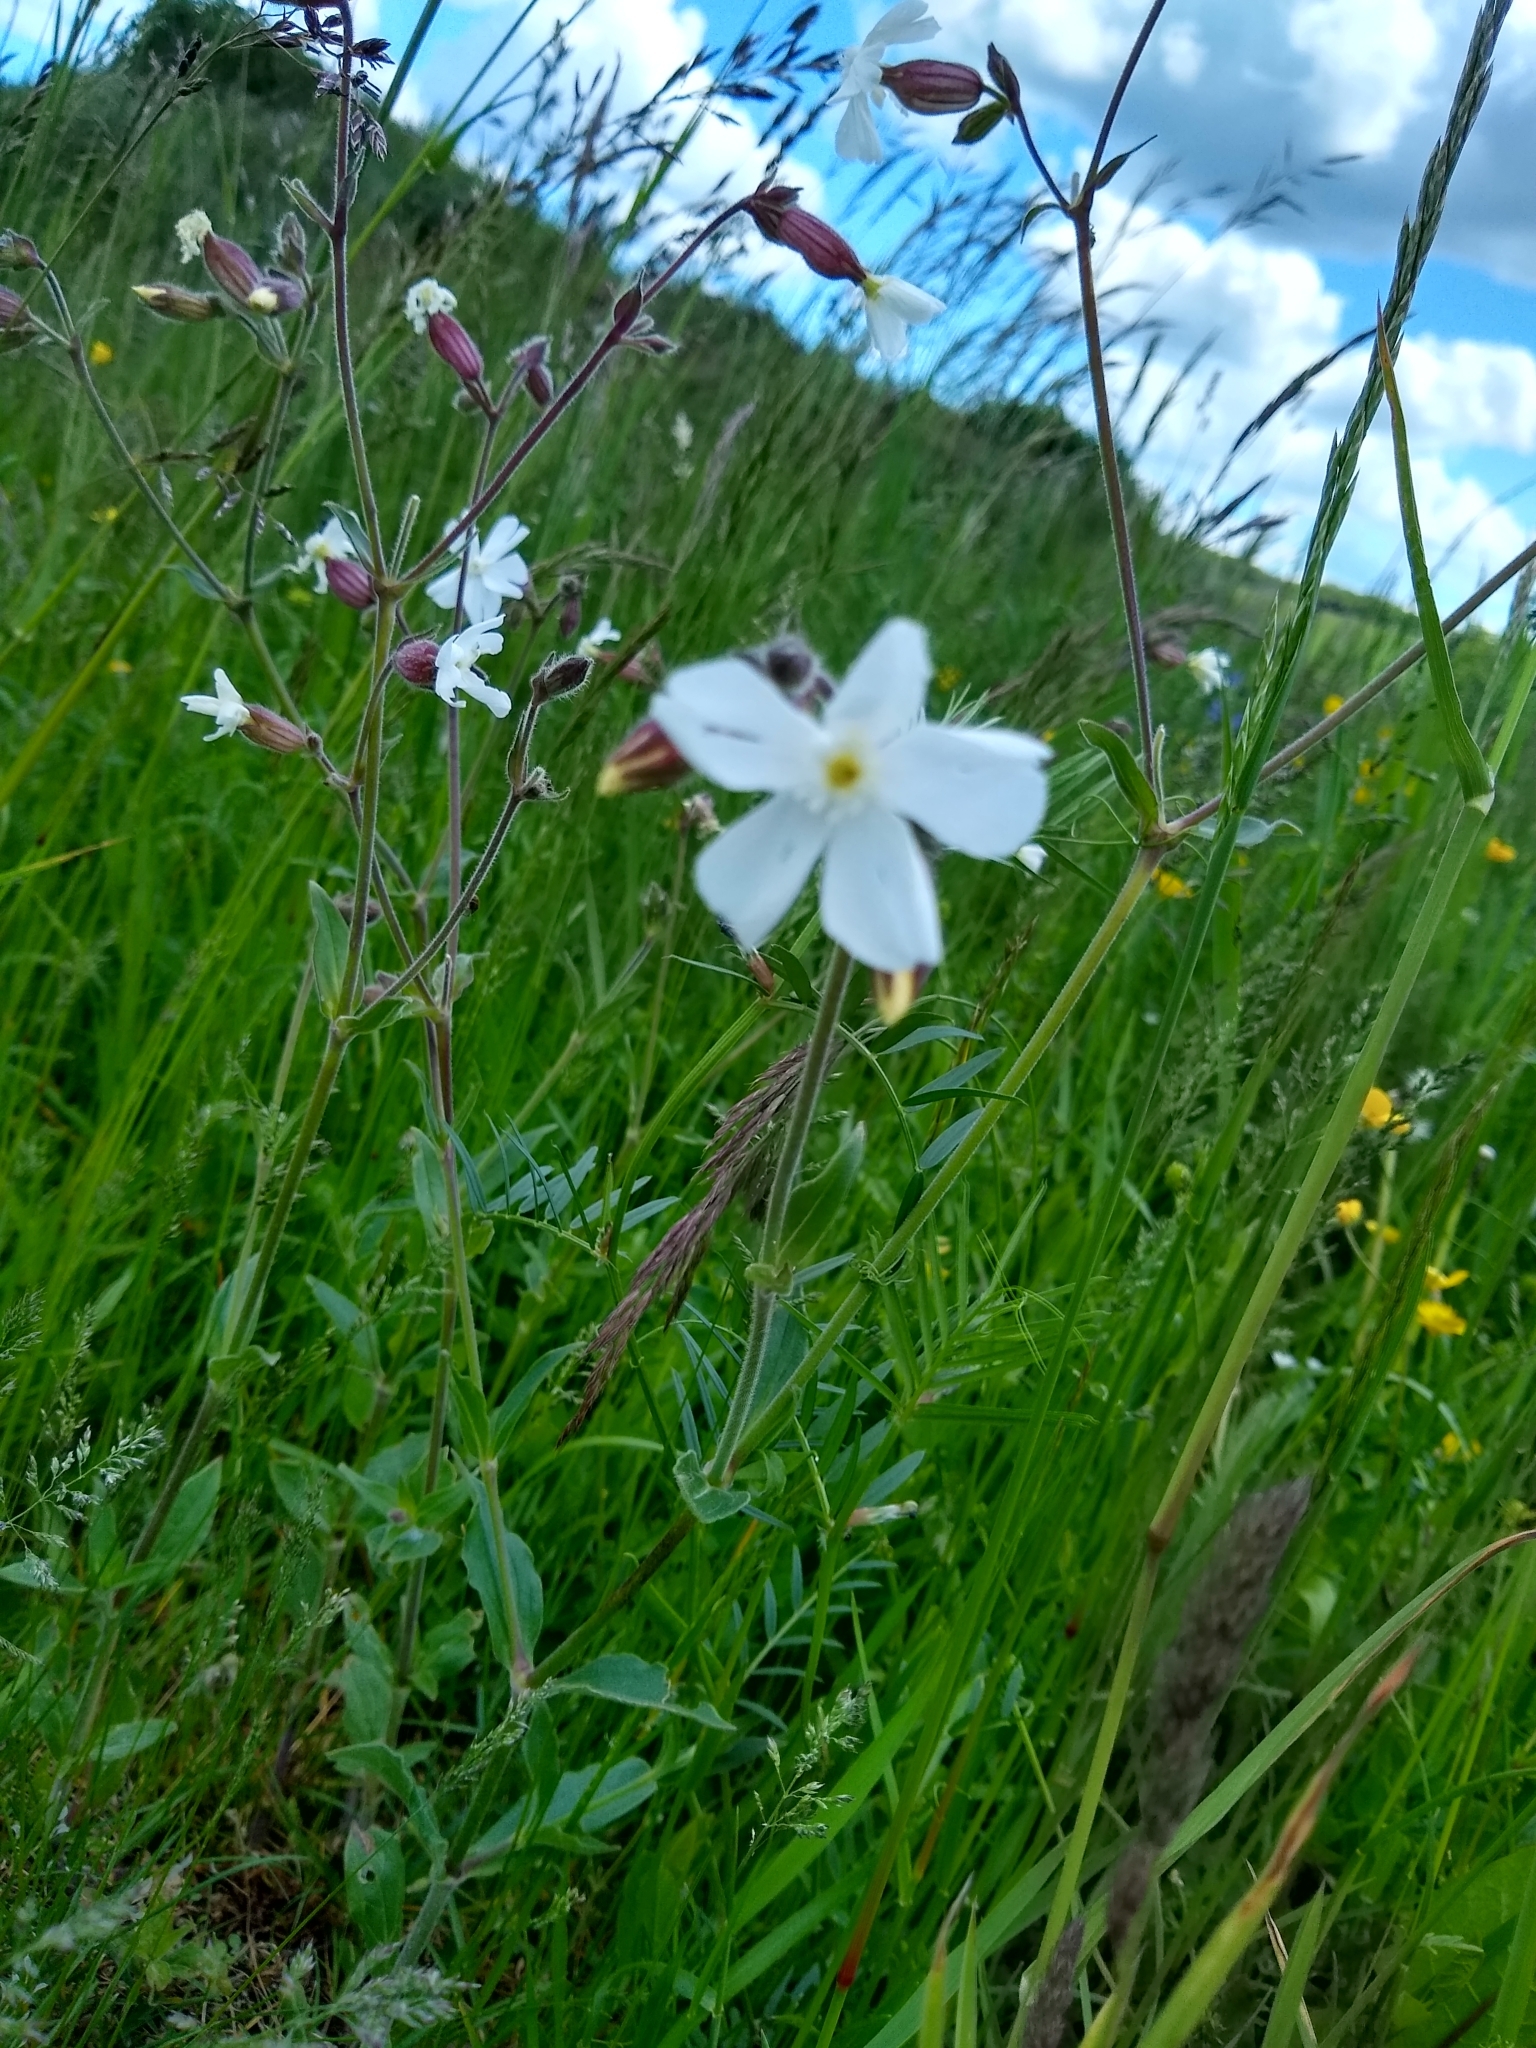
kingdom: Plantae
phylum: Tracheophyta
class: Magnoliopsida
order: Caryophyllales
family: Caryophyllaceae
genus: Silene
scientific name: Silene latifolia
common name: White campion
